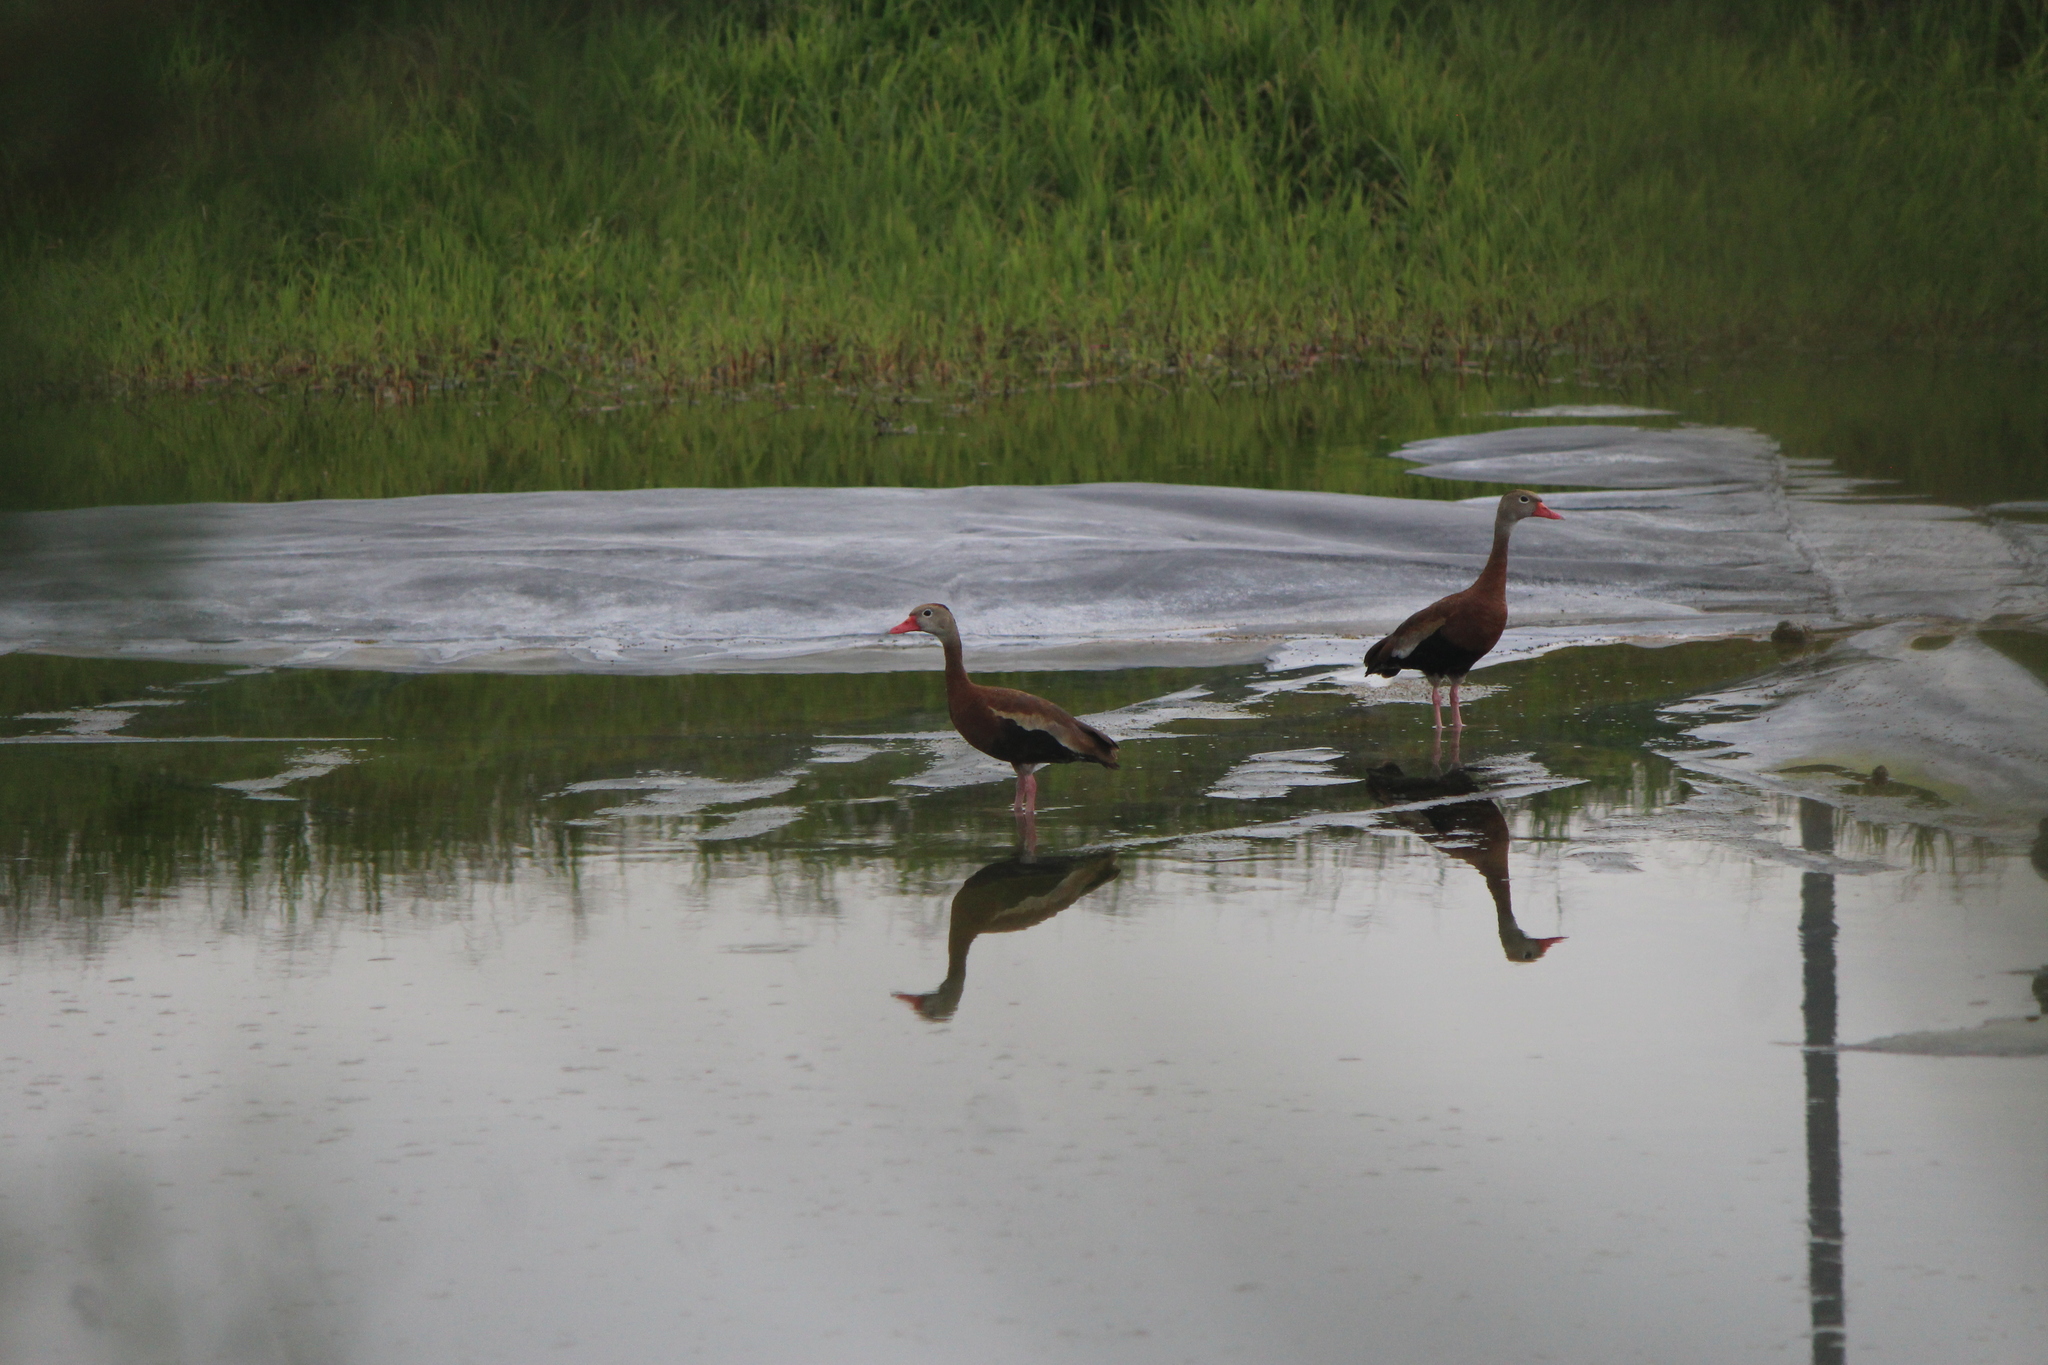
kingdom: Animalia
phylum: Chordata
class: Aves
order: Anseriformes
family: Anatidae
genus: Dendrocygna
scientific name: Dendrocygna autumnalis
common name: Black-bellied whistling duck
